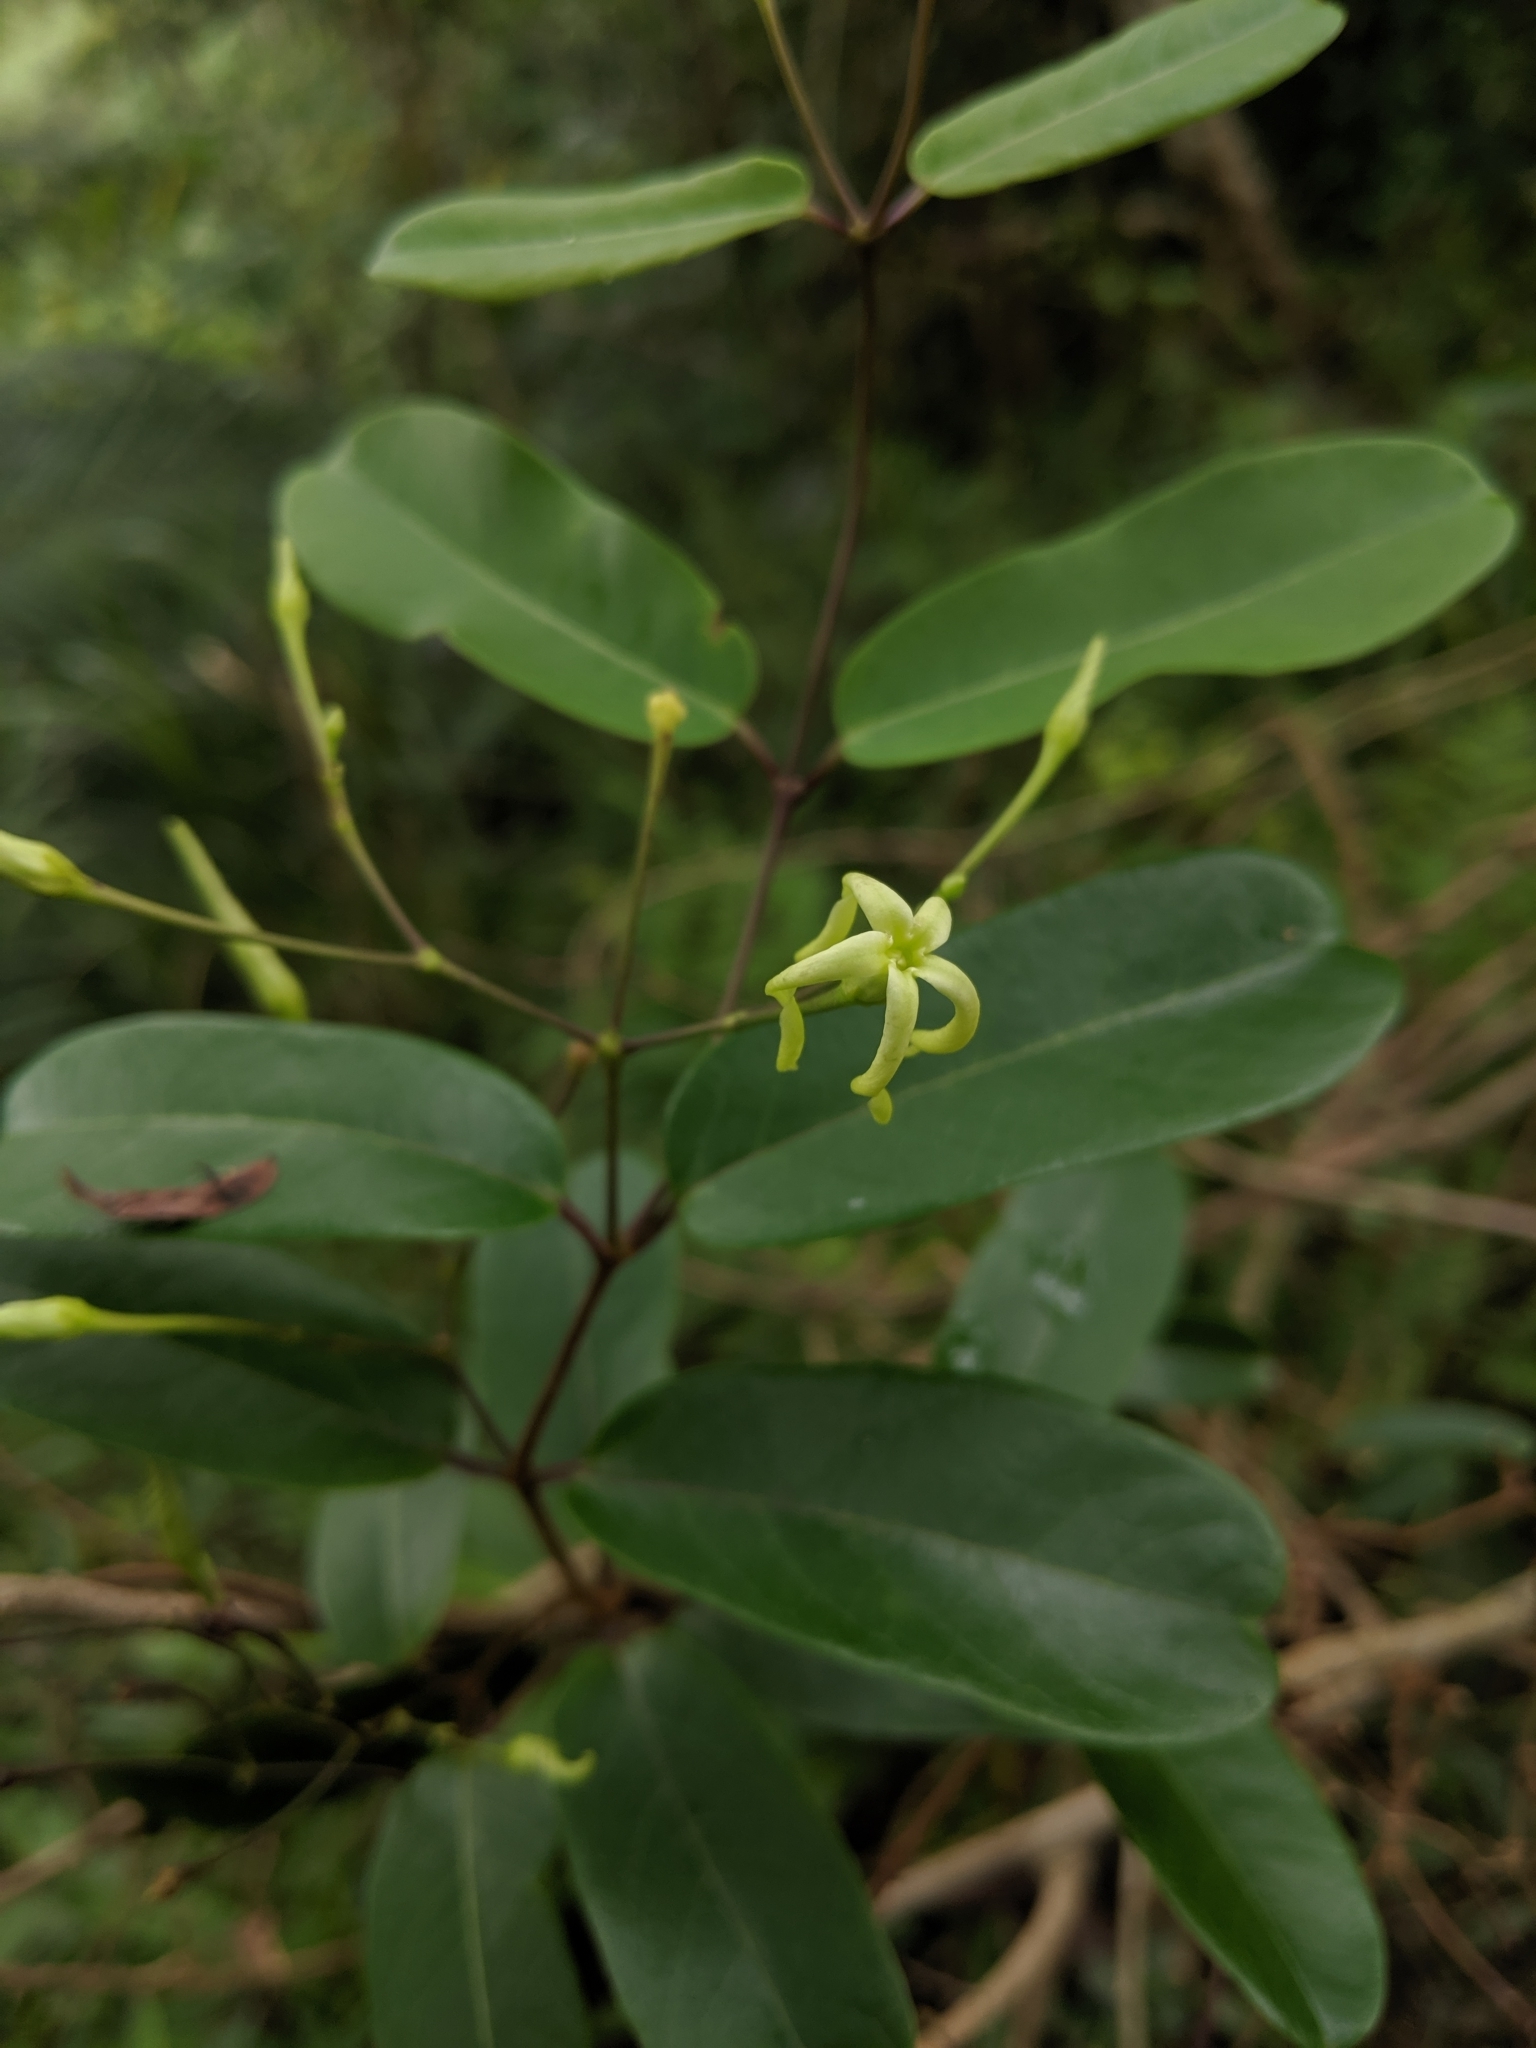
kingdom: Plantae
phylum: Tracheophyta
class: Magnoliopsida
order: Gentianales
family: Apocynaceae
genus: Cryptolepis
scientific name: Cryptolepis sinensis
